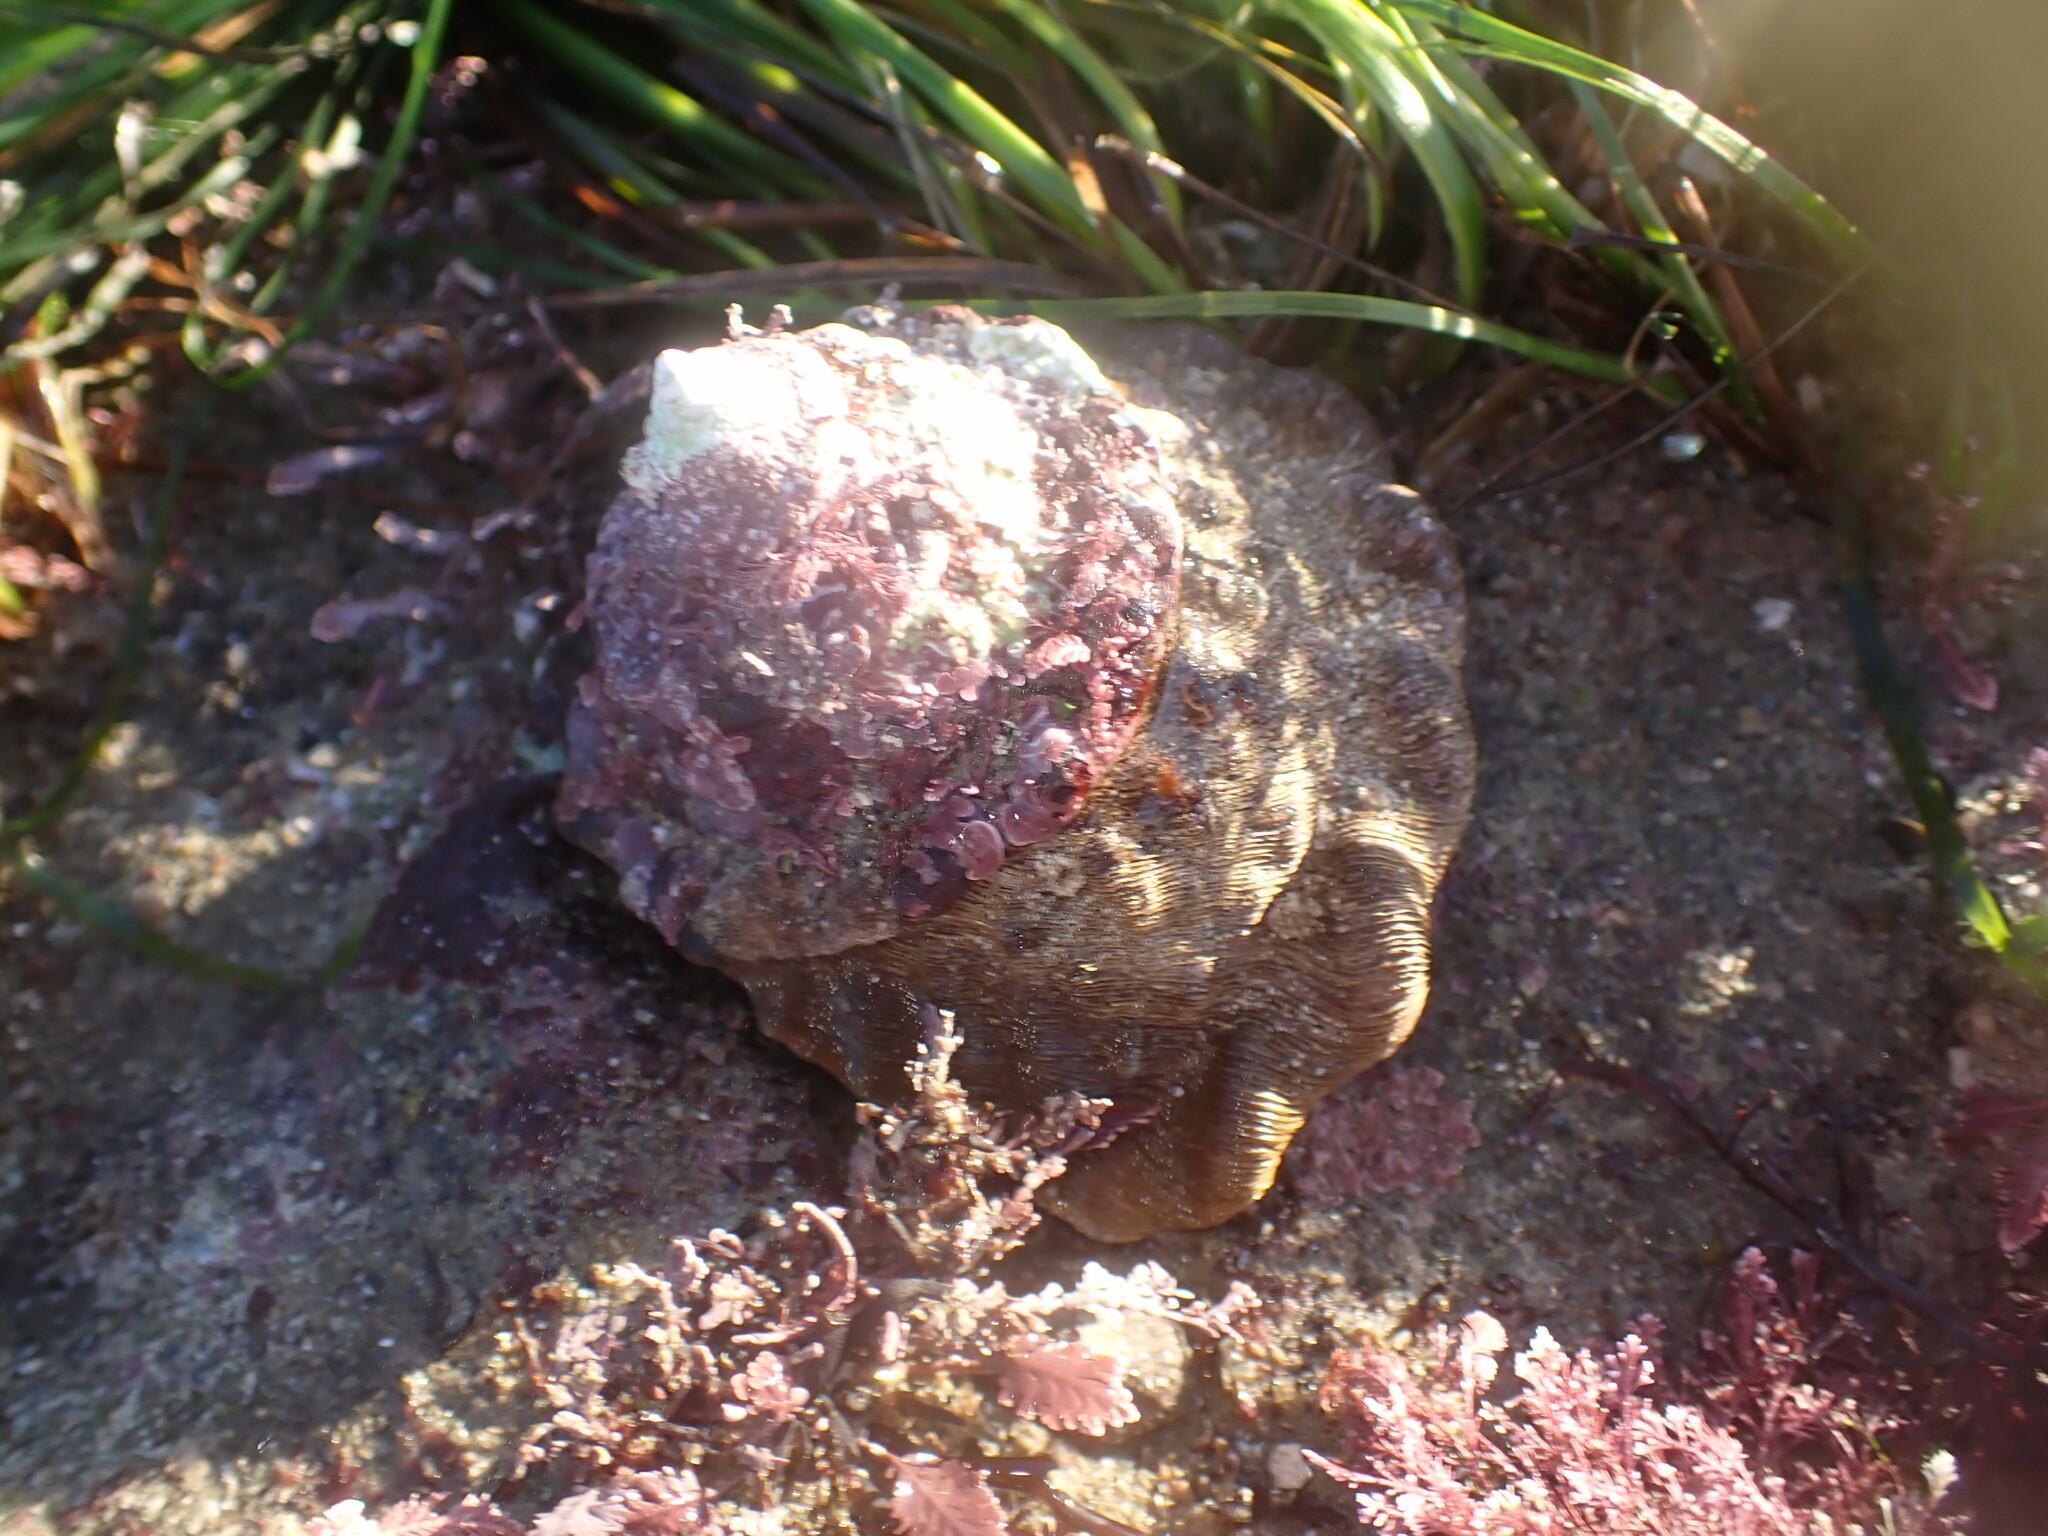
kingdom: Animalia
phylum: Mollusca
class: Gastropoda
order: Trochida
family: Turbinidae
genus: Megastraea
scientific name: Megastraea undosa
